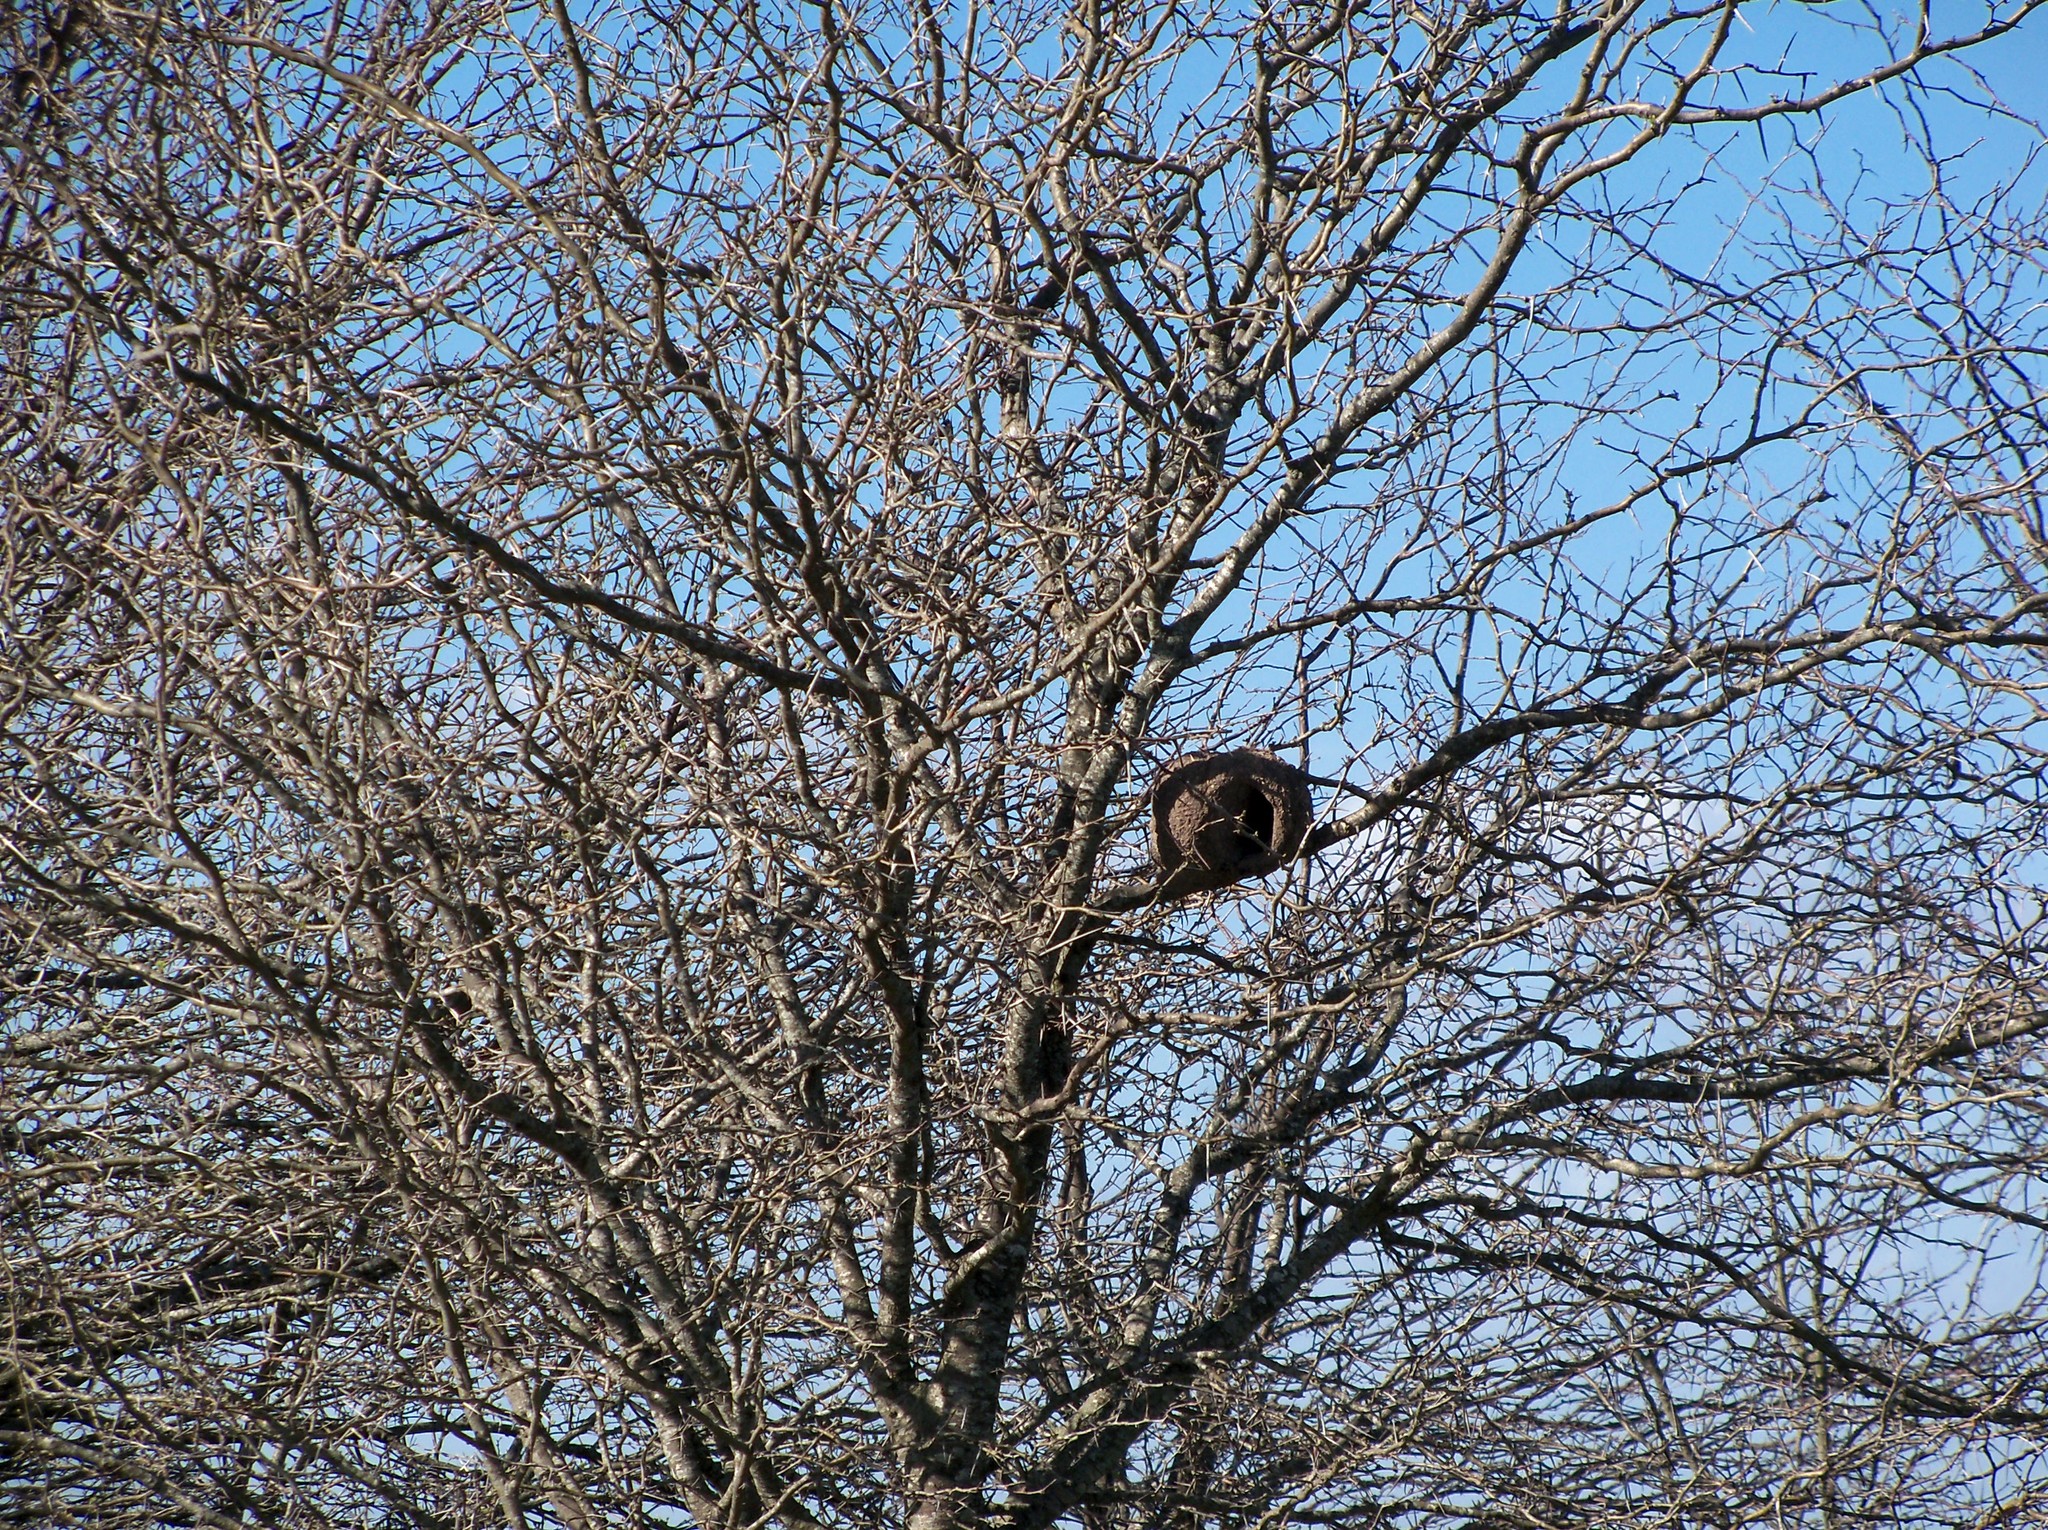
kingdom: Animalia
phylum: Chordata
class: Aves
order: Passeriformes
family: Furnariidae
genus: Furnarius
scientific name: Furnarius rufus
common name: Rufous hornero
